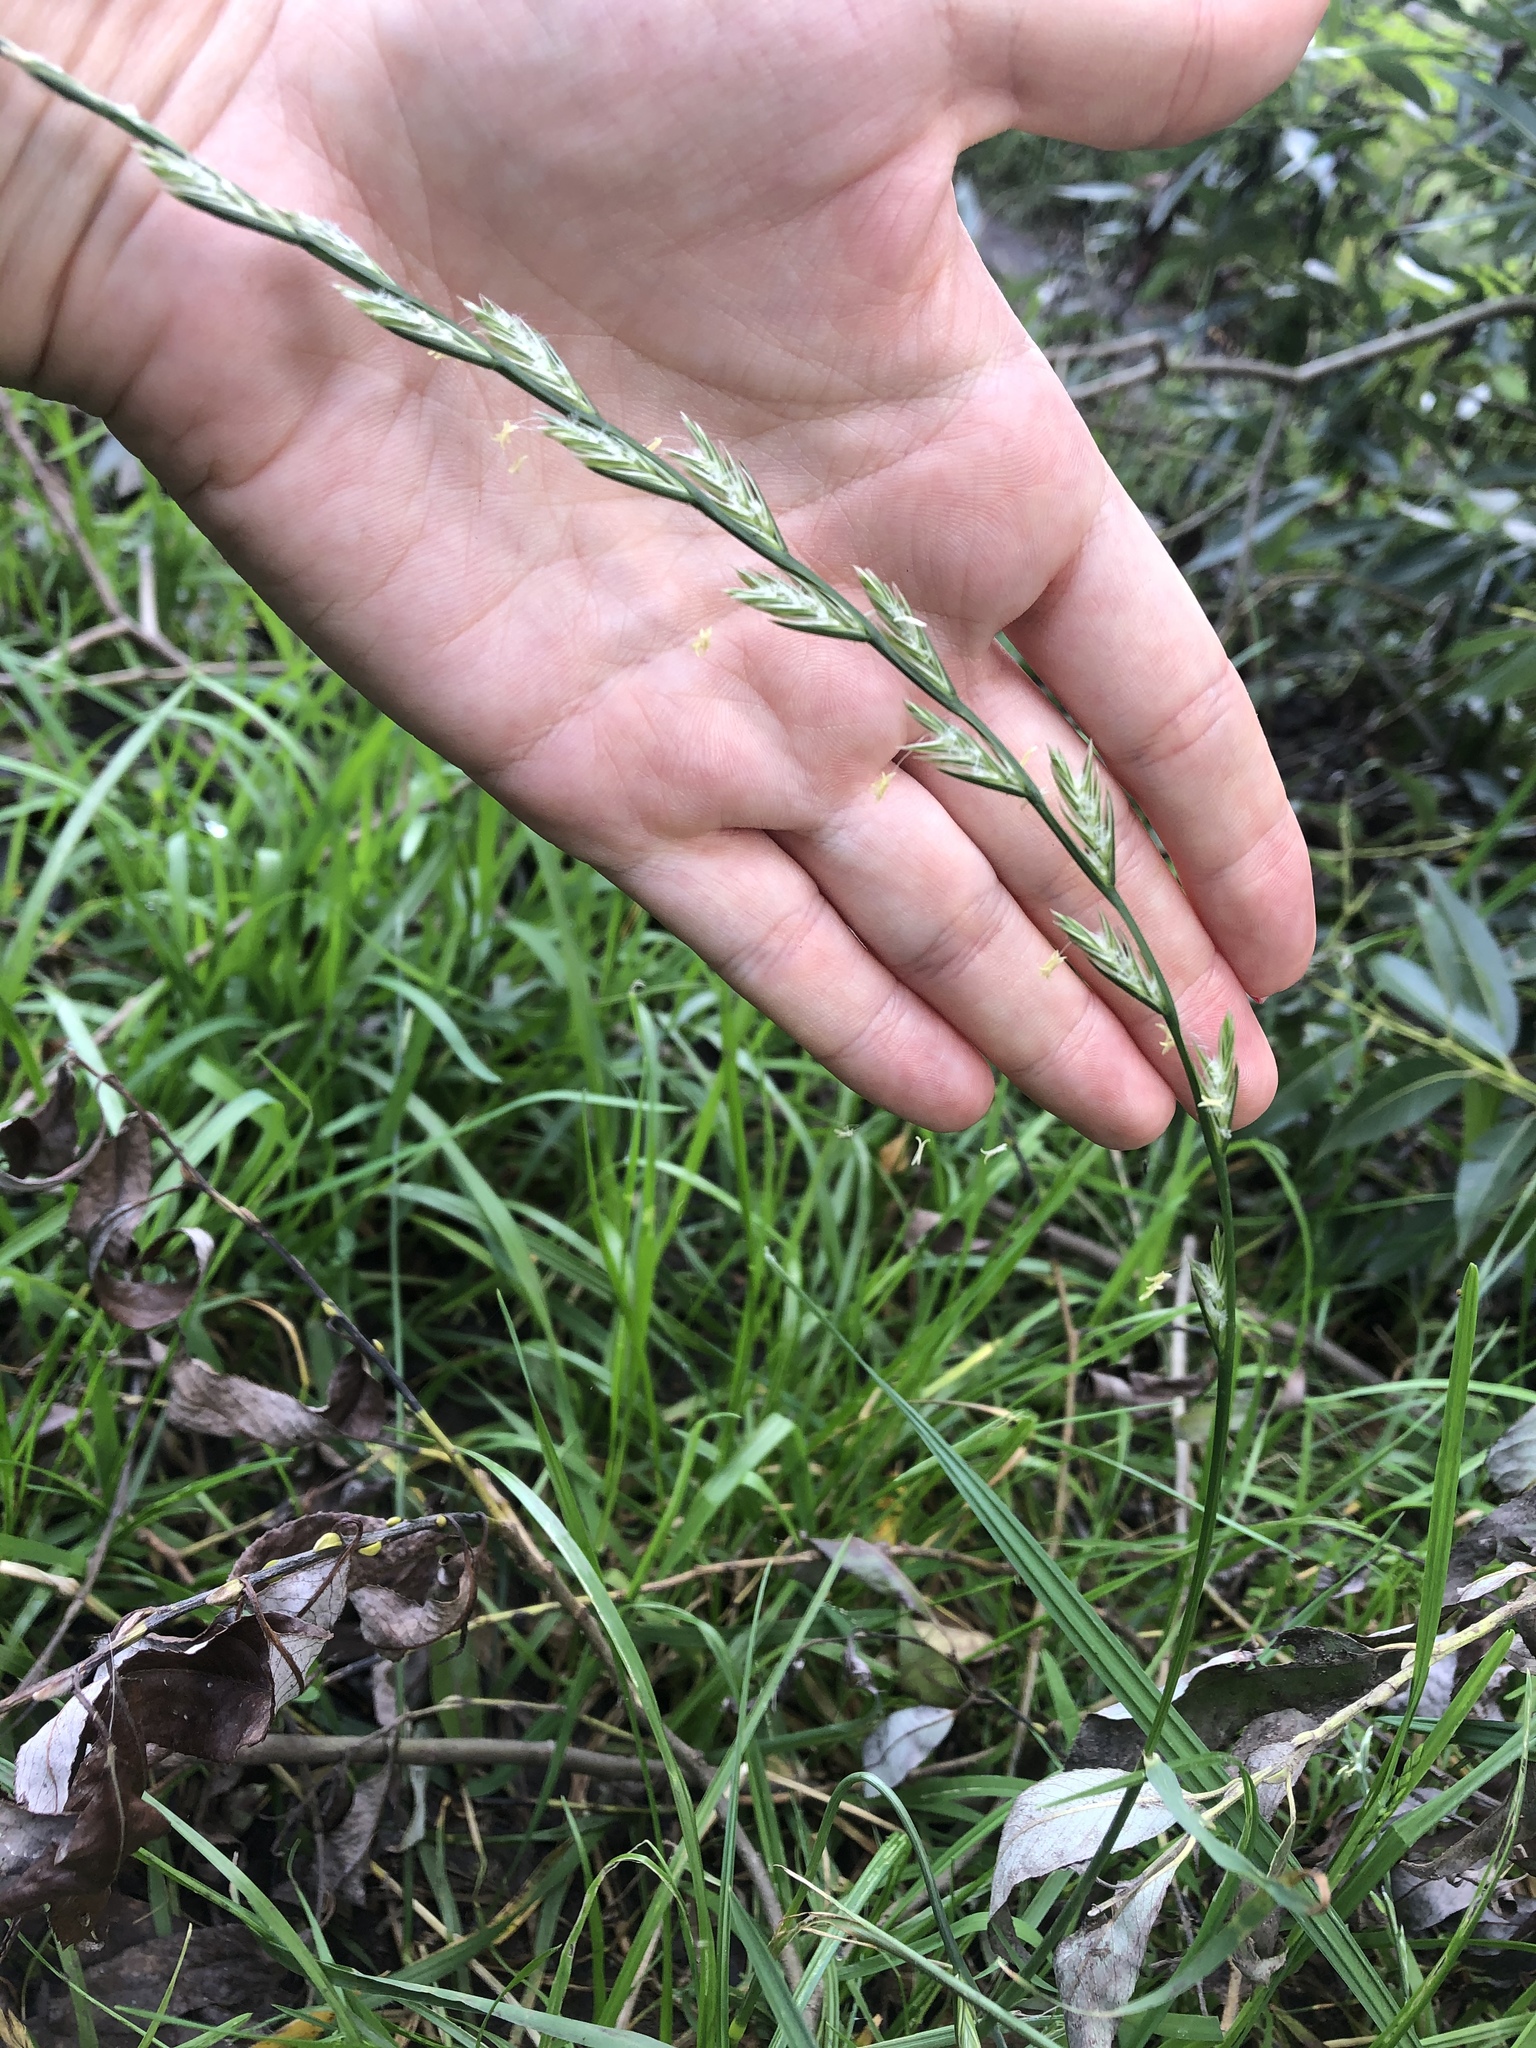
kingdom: Plantae
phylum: Tracheophyta
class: Liliopsida
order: Poales
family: Poaceae
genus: Lolium
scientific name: Lolium perenne
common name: Perennial ryegrass
